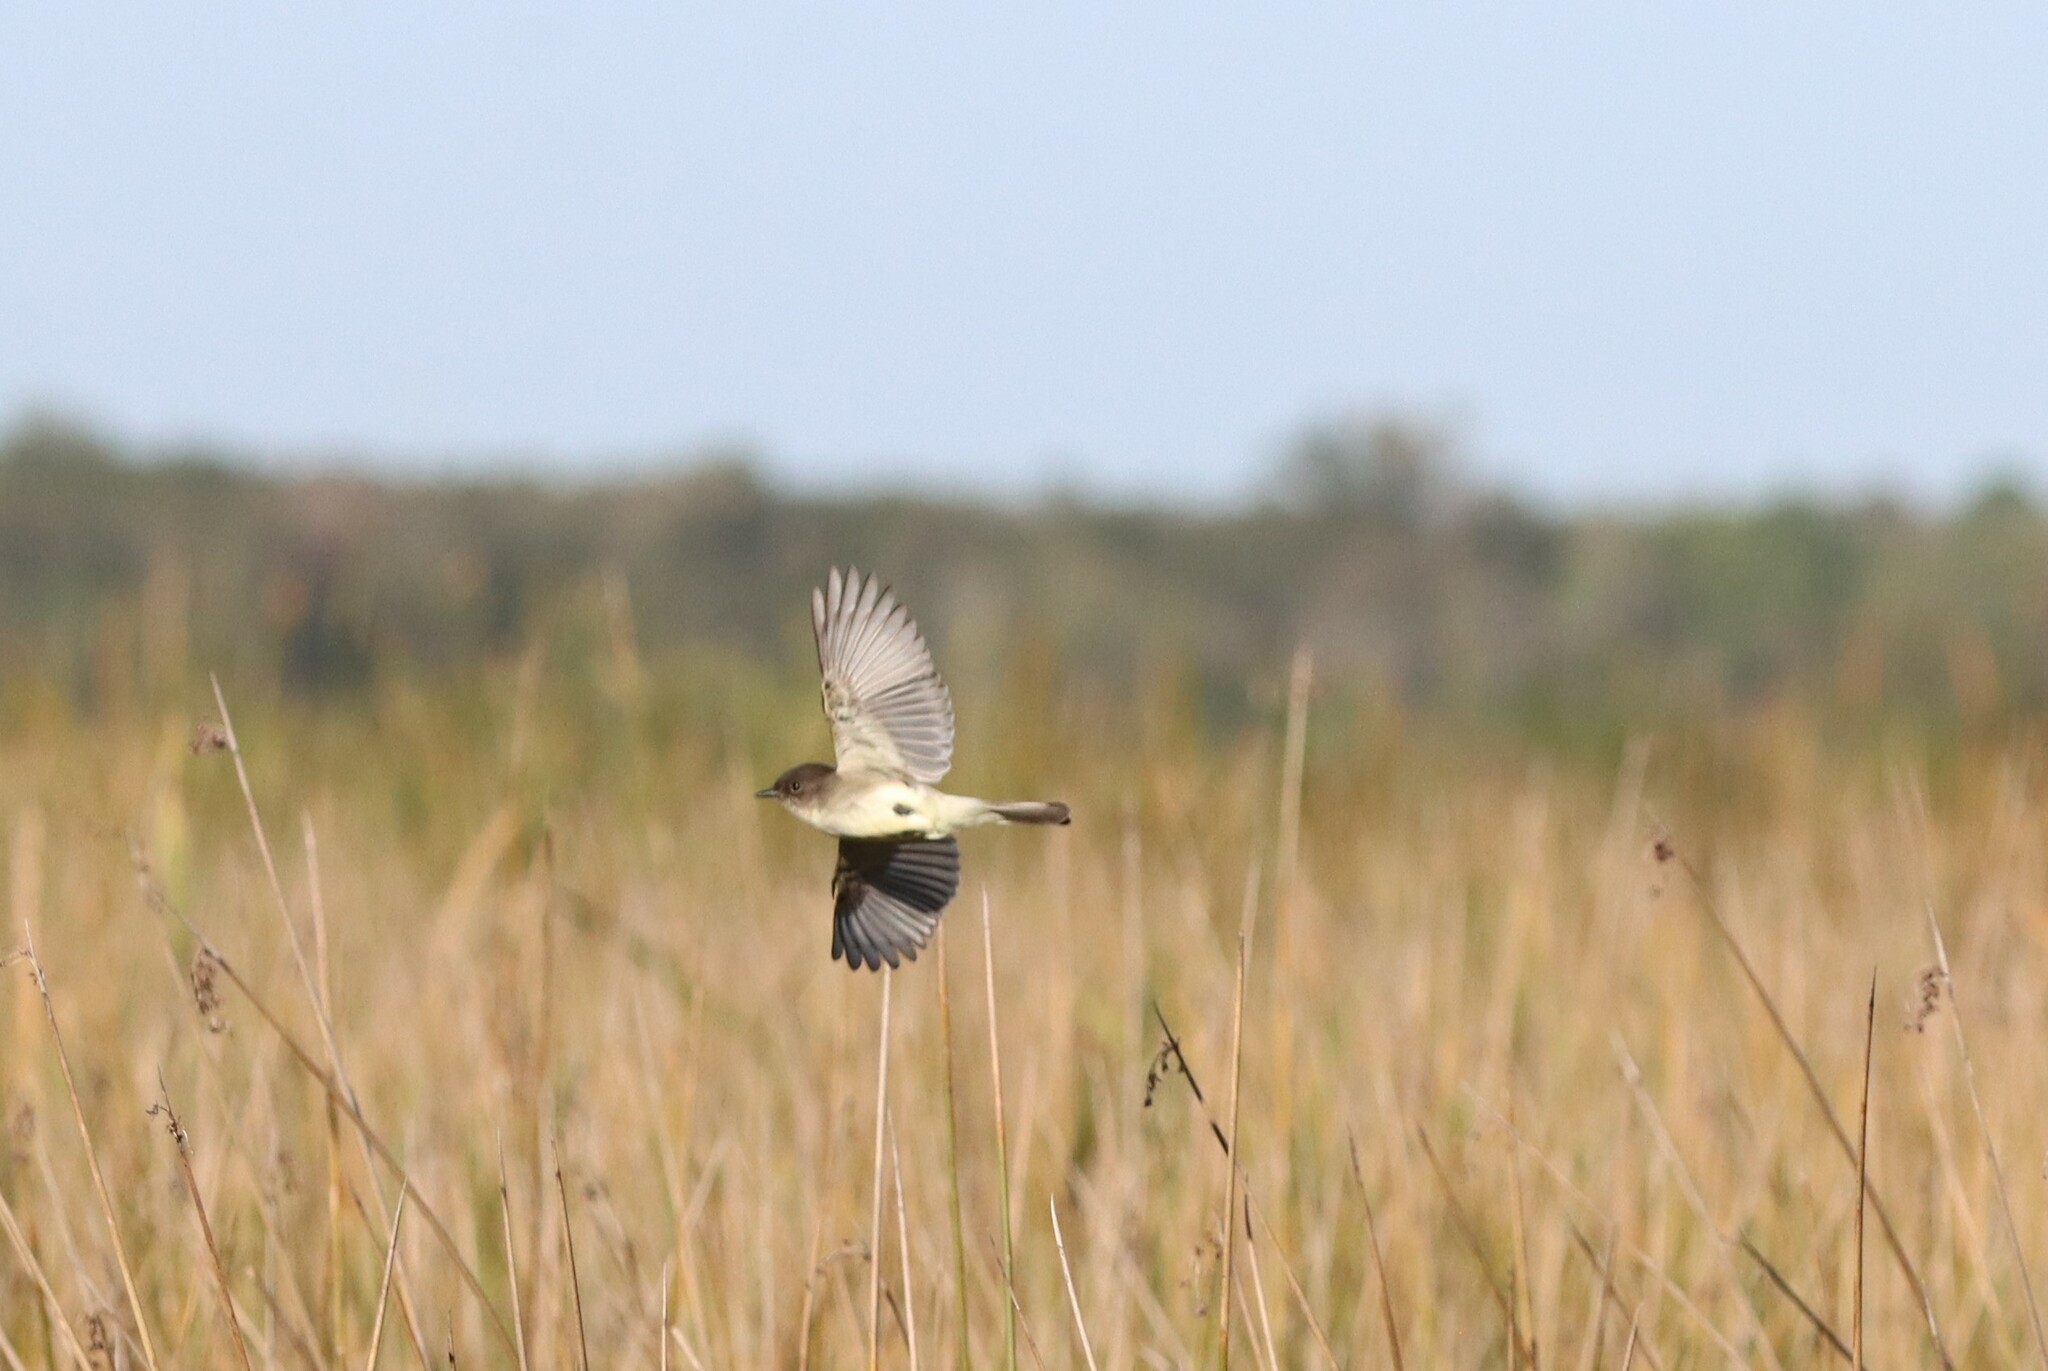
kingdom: Animalia
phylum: Chordata
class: Aves
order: Passeriformes
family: Tyrannidae
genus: Sayornis
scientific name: Sayornis phoebe
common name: Eastern phoebe
